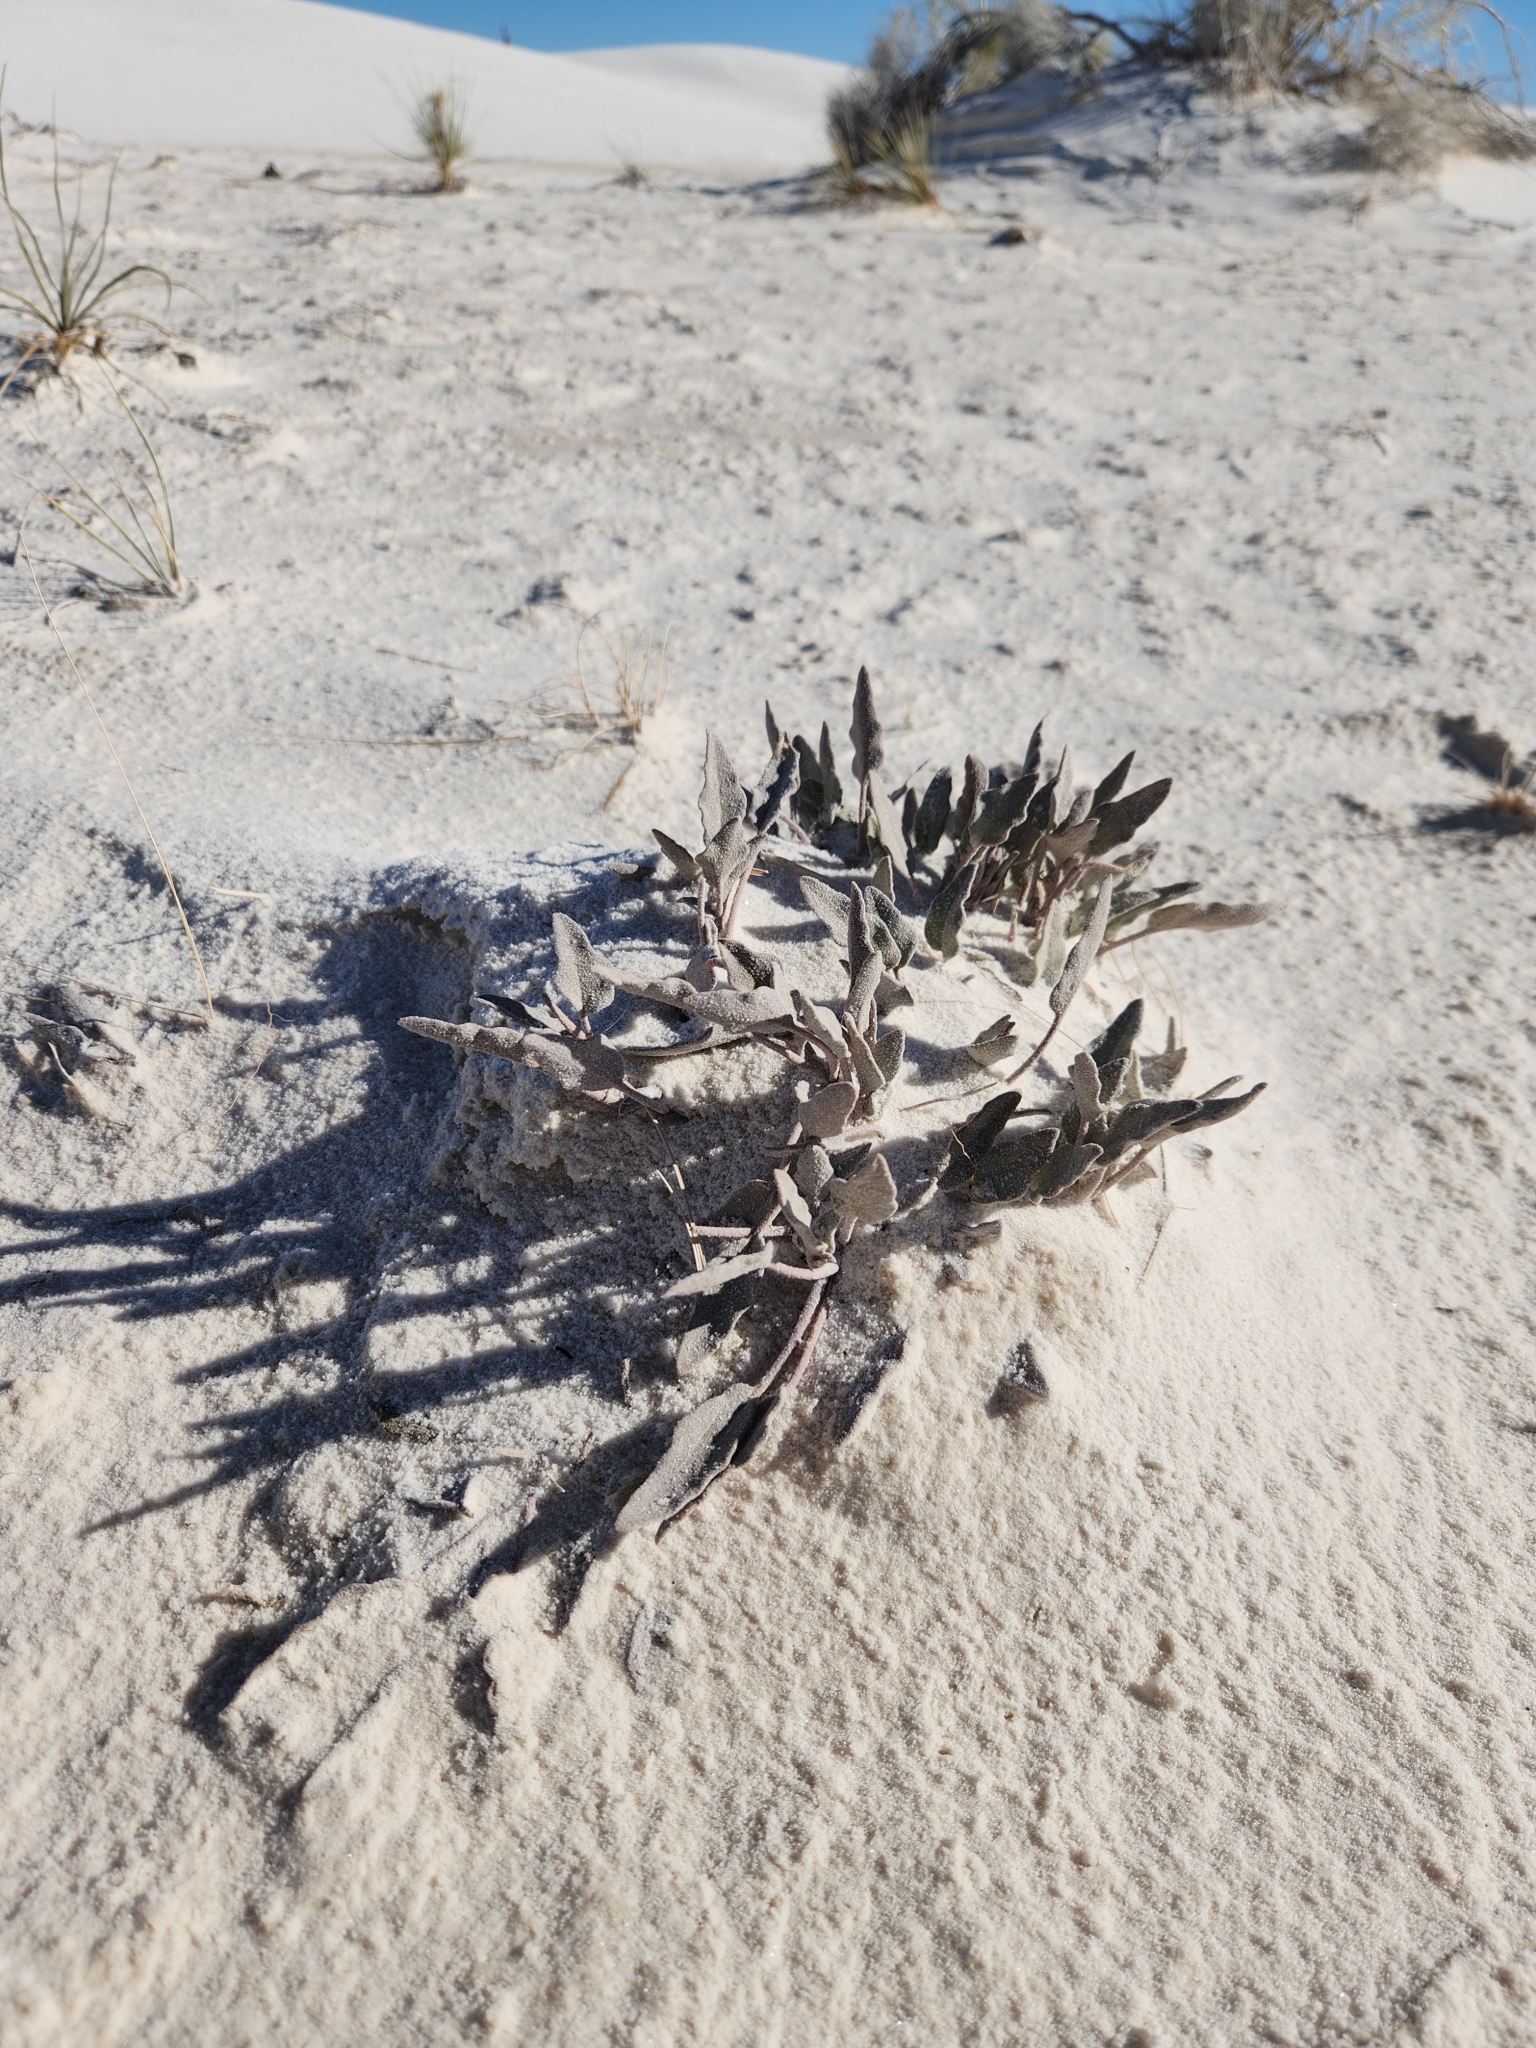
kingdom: Plantae
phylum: Tracheophyta
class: Magnoliopsida
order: Caryophyllales
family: Nyctaginaceae
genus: Abronia
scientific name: Abronia angustifolia
